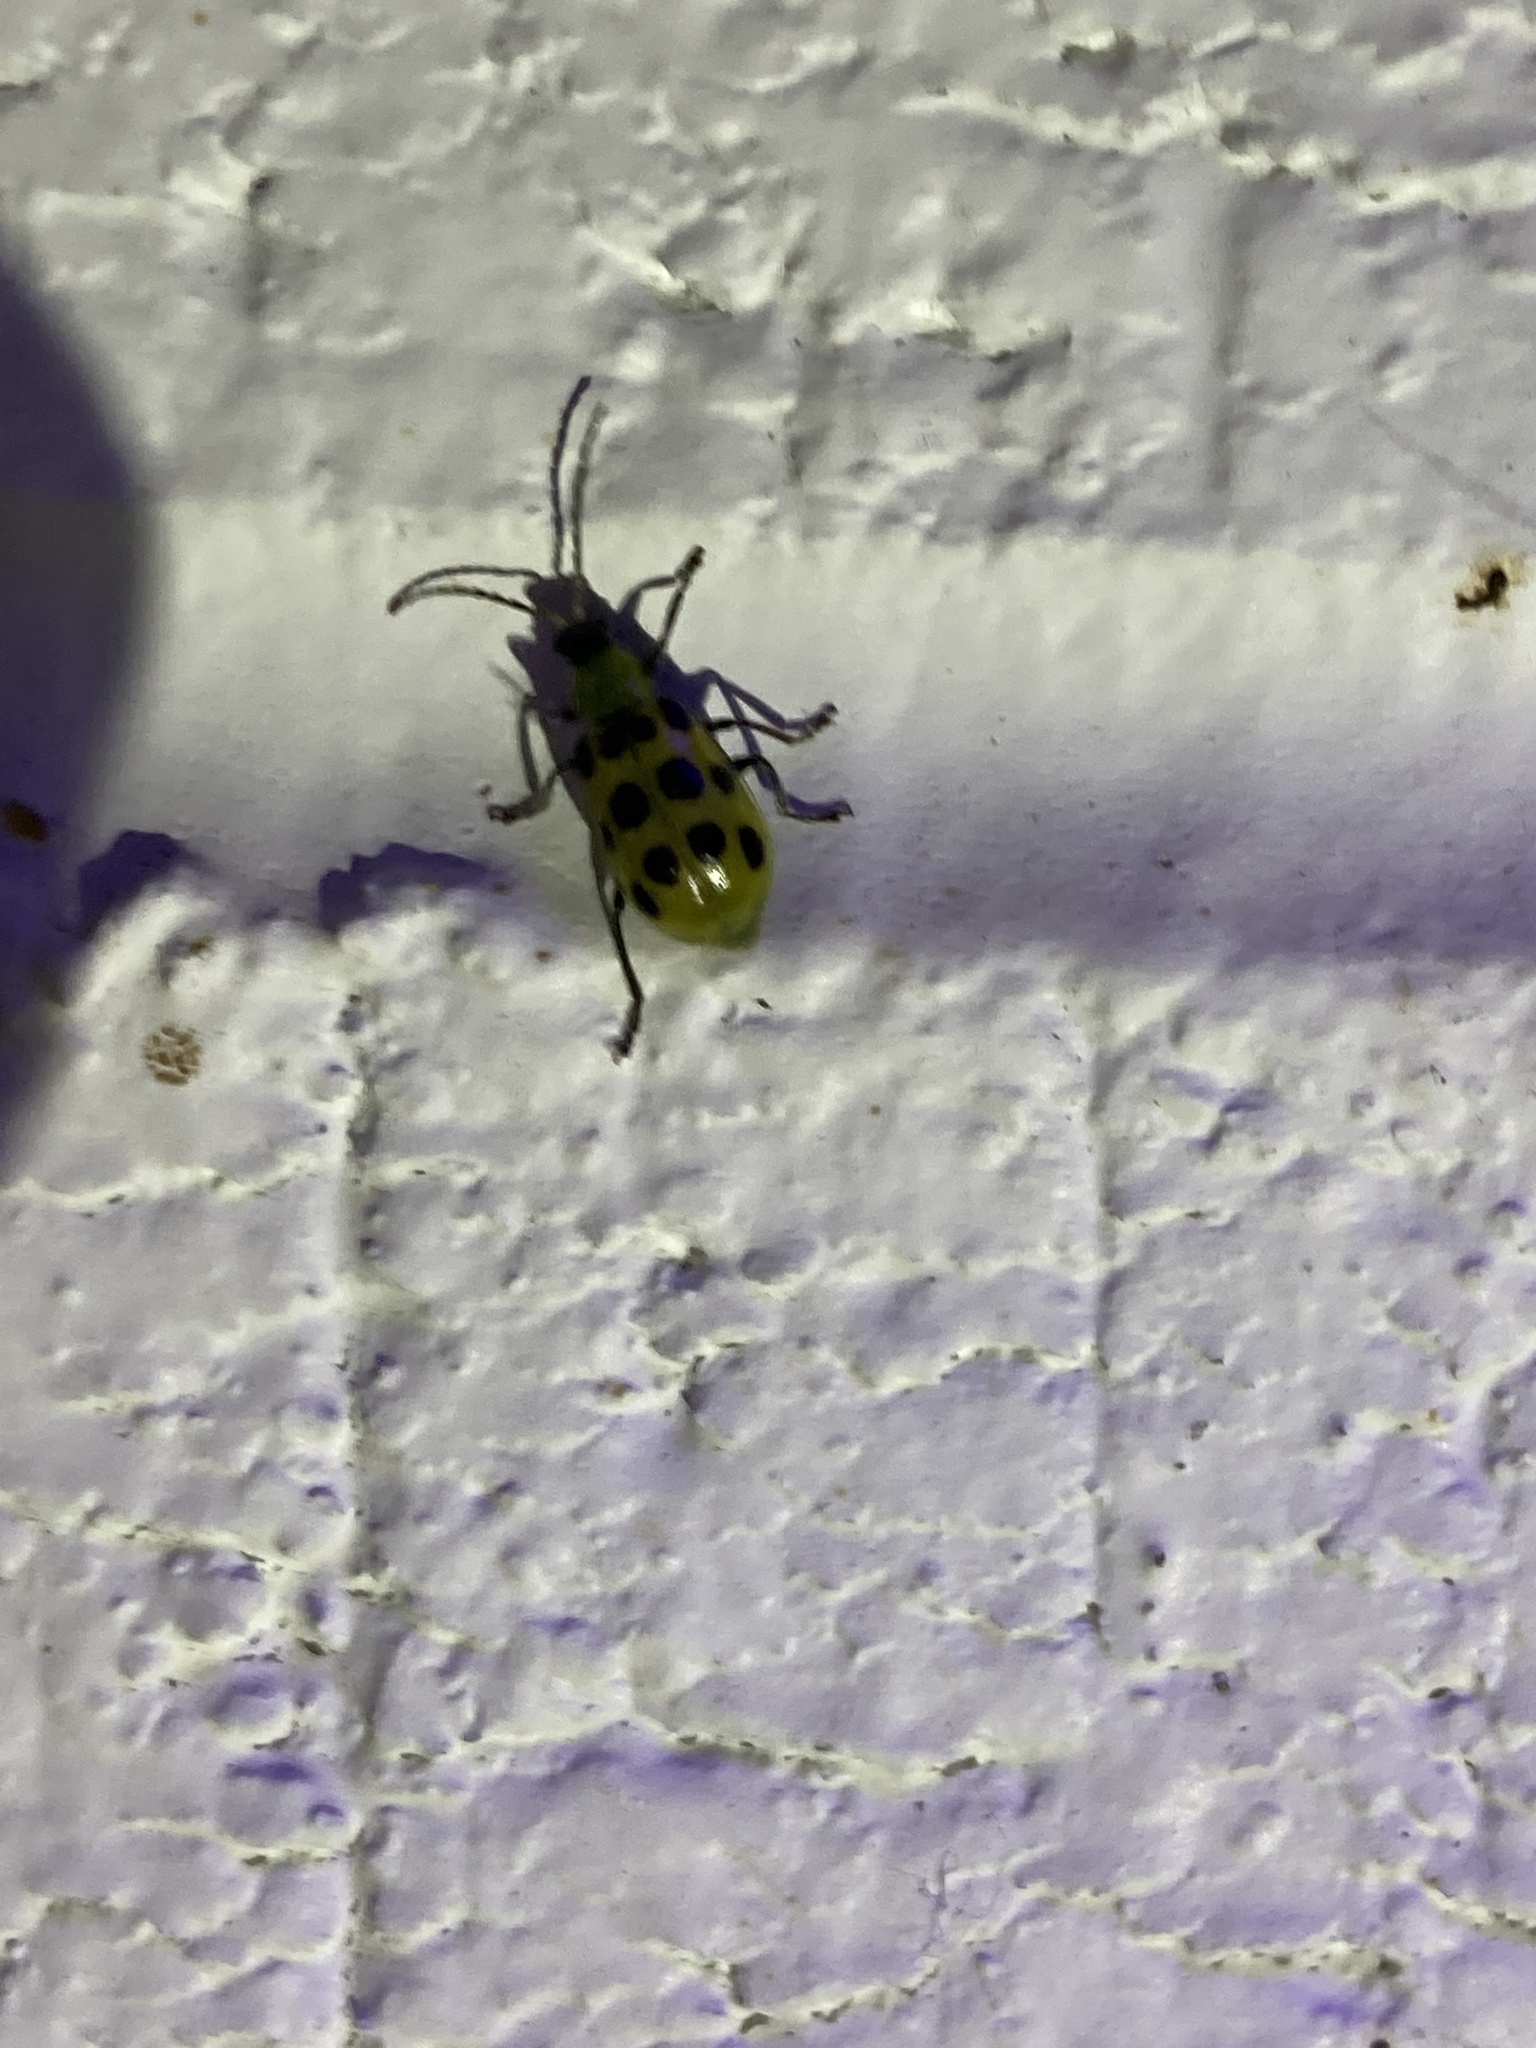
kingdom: Animalia
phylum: Arthropoda
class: Insecta
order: Coleoptera
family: Chrysomelidae
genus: Diabrotica
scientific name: Diabrotica undecimpunctata
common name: Spotted cucumber beetle
